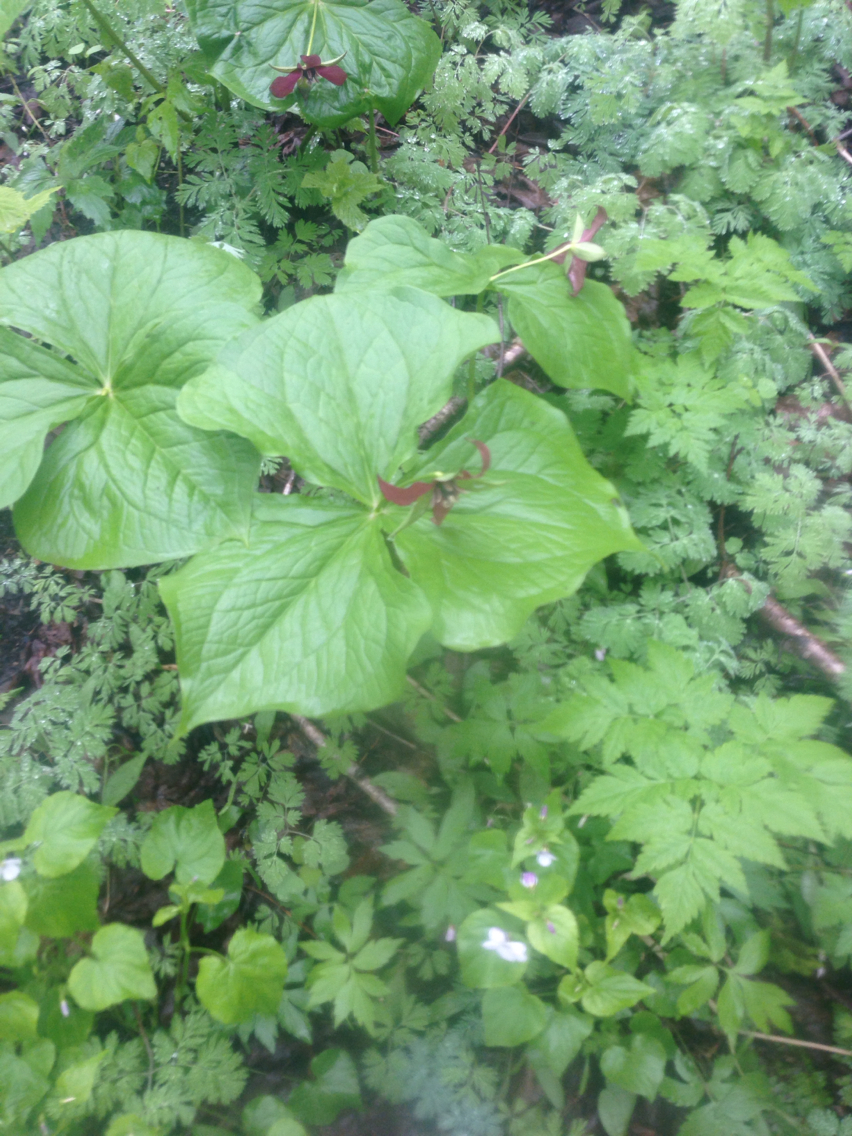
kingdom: Plantae
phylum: Tracheophyta
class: Liliopsida
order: Liliales
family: Melanthiaceae
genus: Trillium
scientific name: Trillium erectum
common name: Purple trillium
